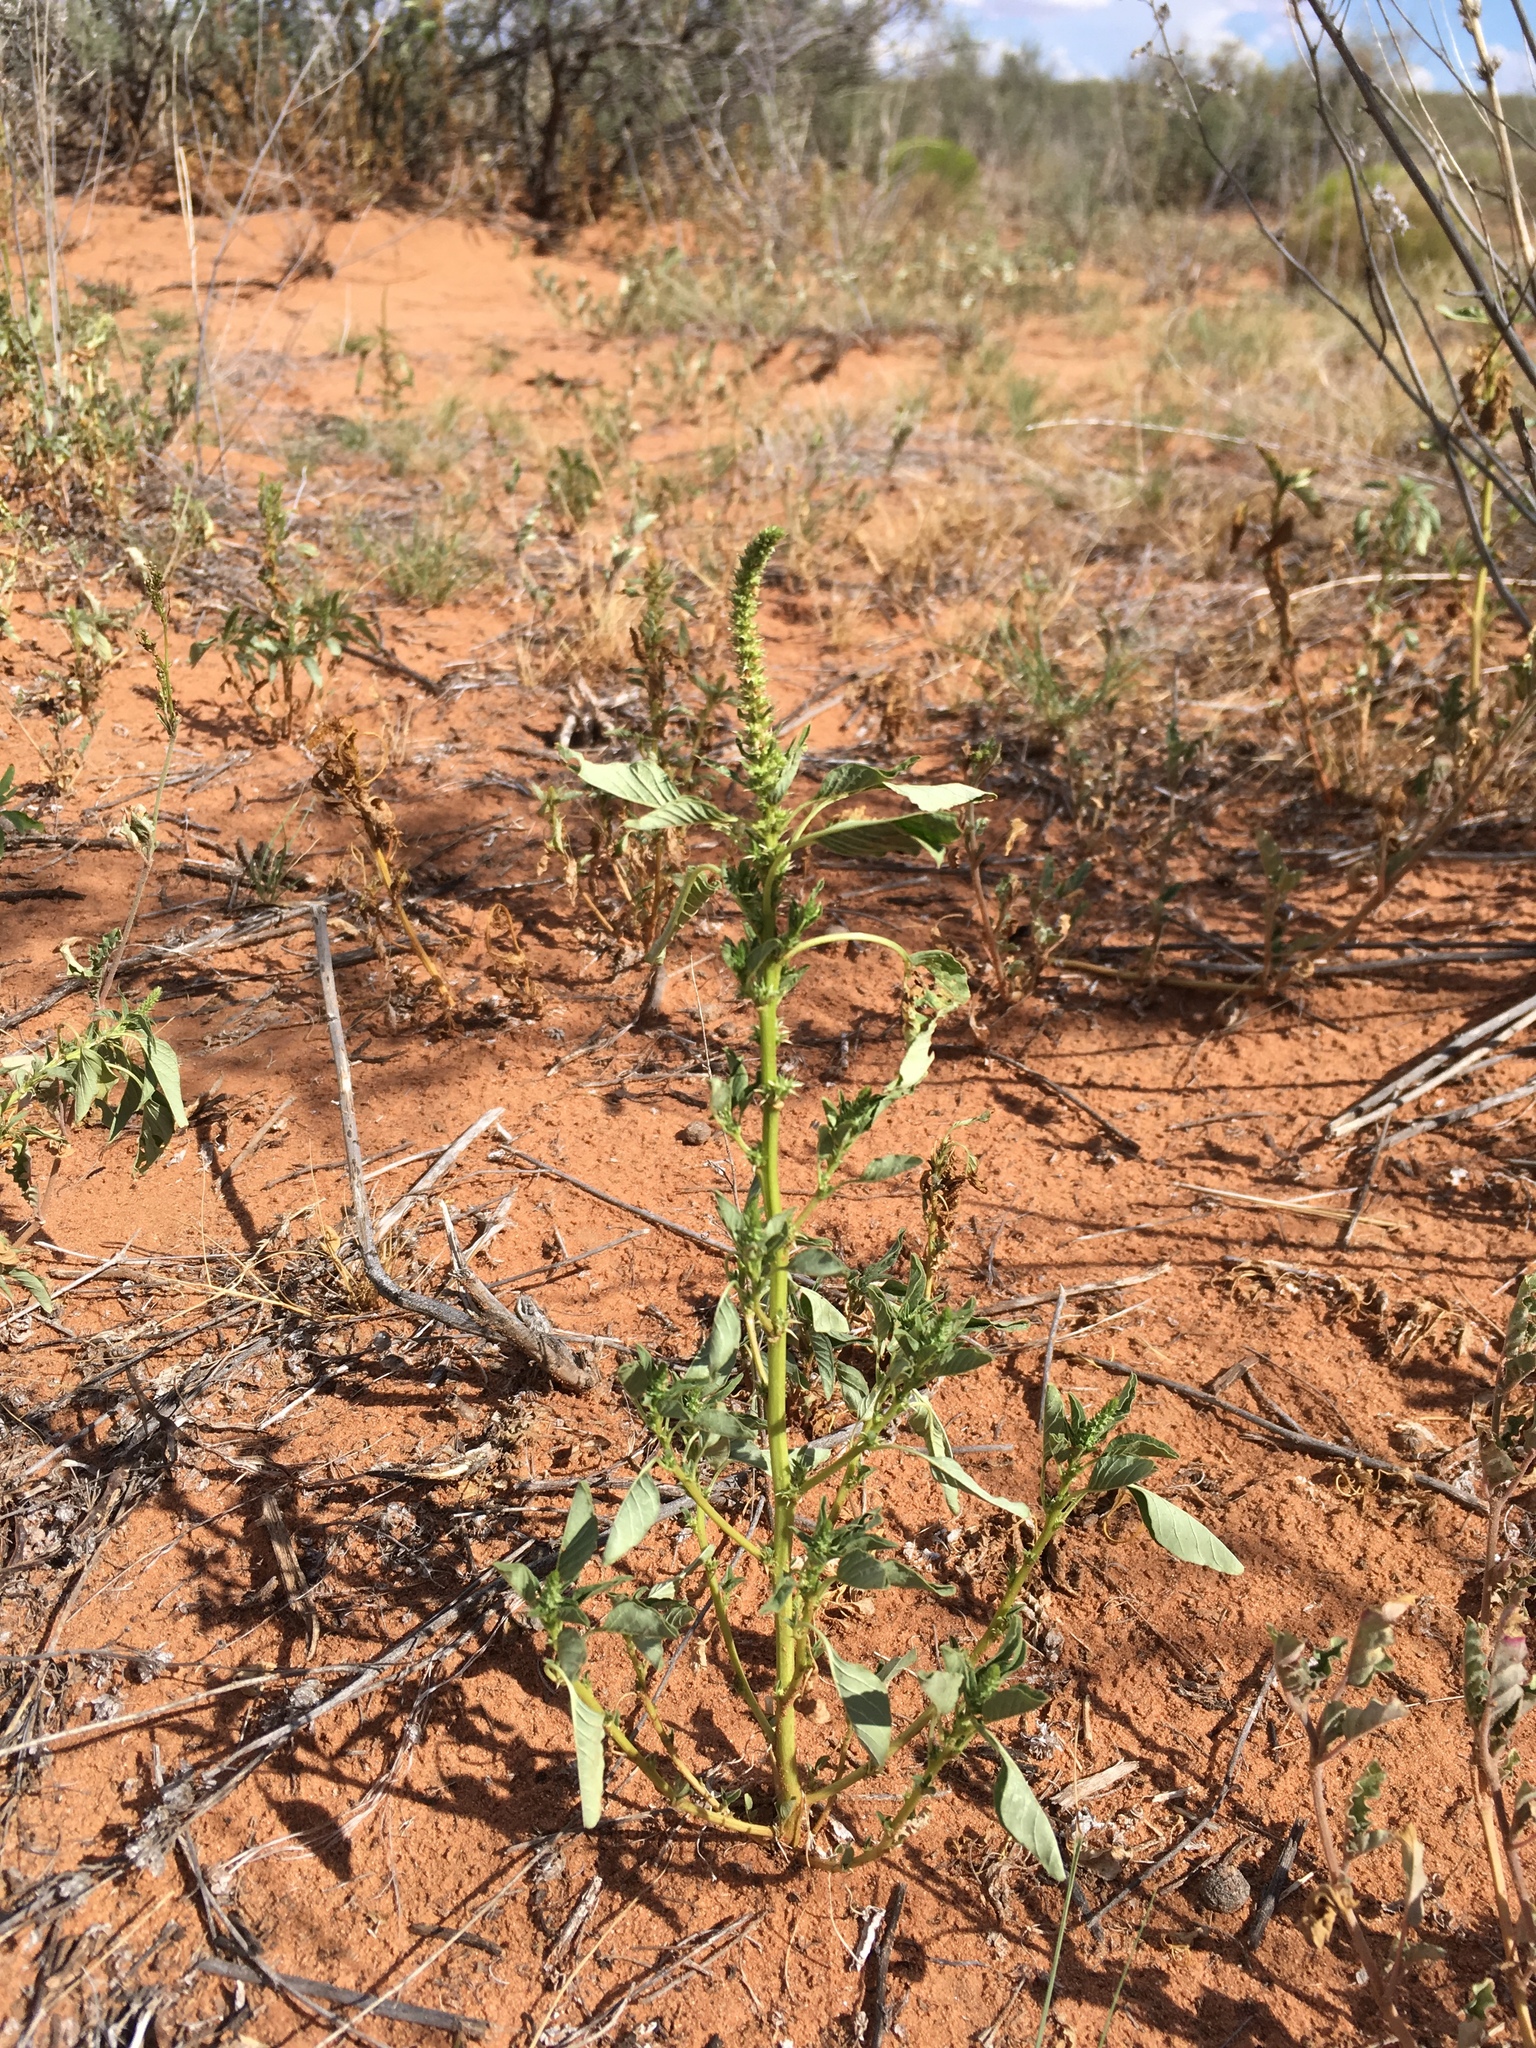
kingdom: Plantae
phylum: Tracheophyta
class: Magnoliopsida
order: Caryophyllales
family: Amaranthaceae
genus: Amaranthus
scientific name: Amaranthus palmeri
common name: Dioecious amaranth
